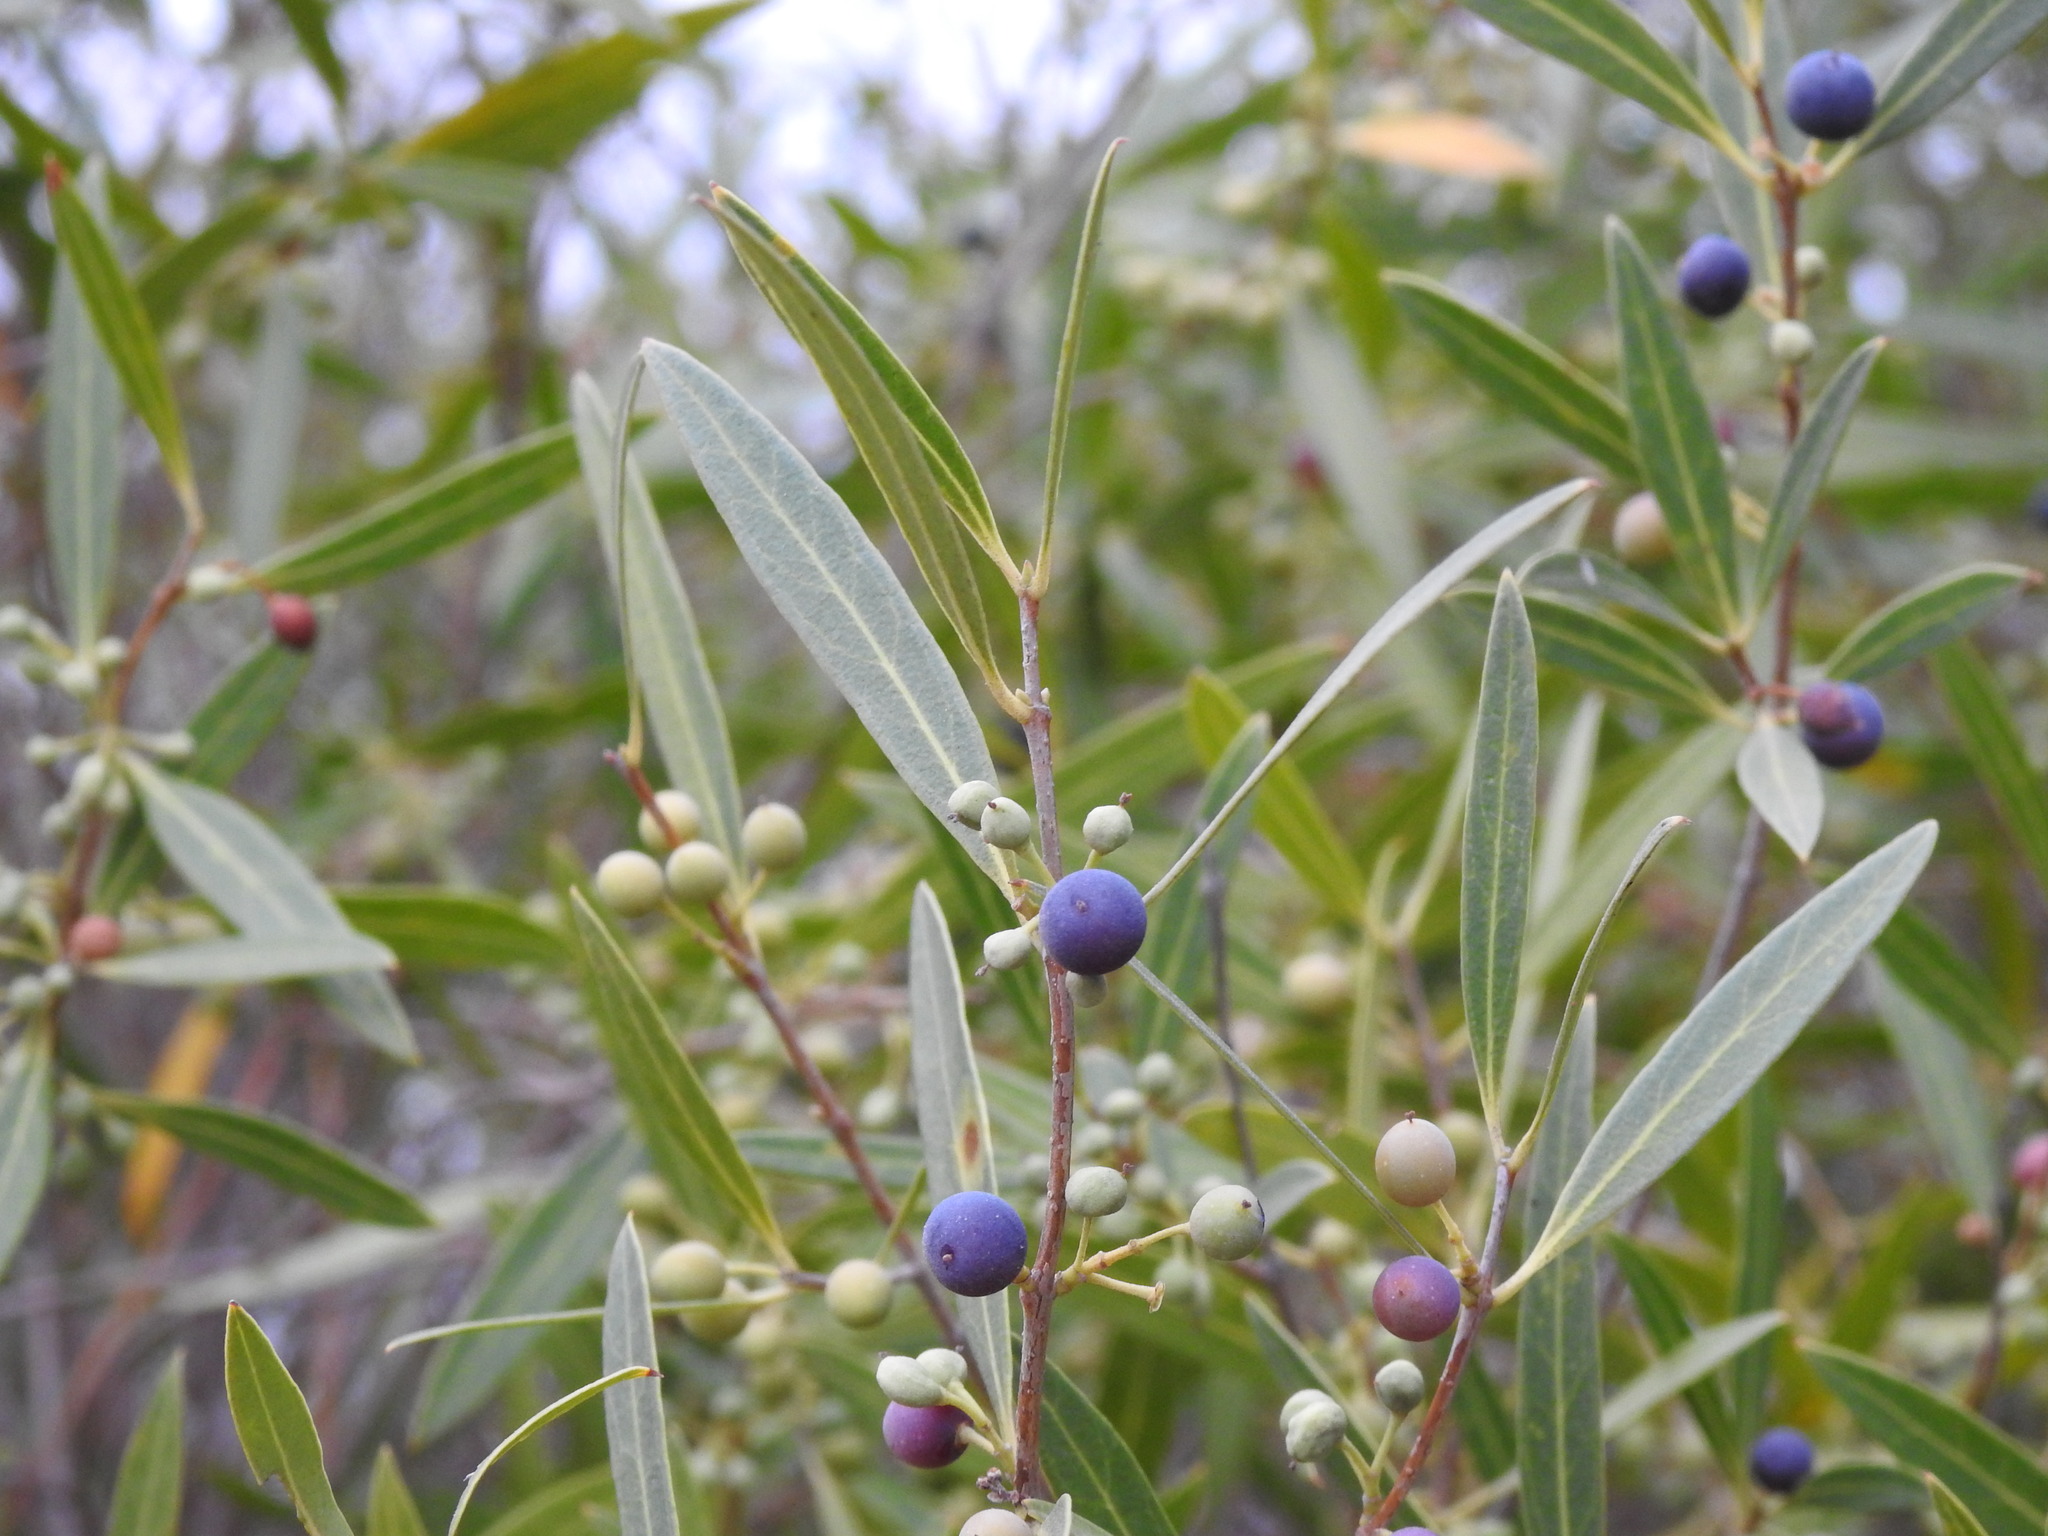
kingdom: Plantae
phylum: Tracheophyta
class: Magnoliopsida
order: Lamiales
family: Oleaceae
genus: Phillyrea
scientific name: Phillyrea angustifolia
